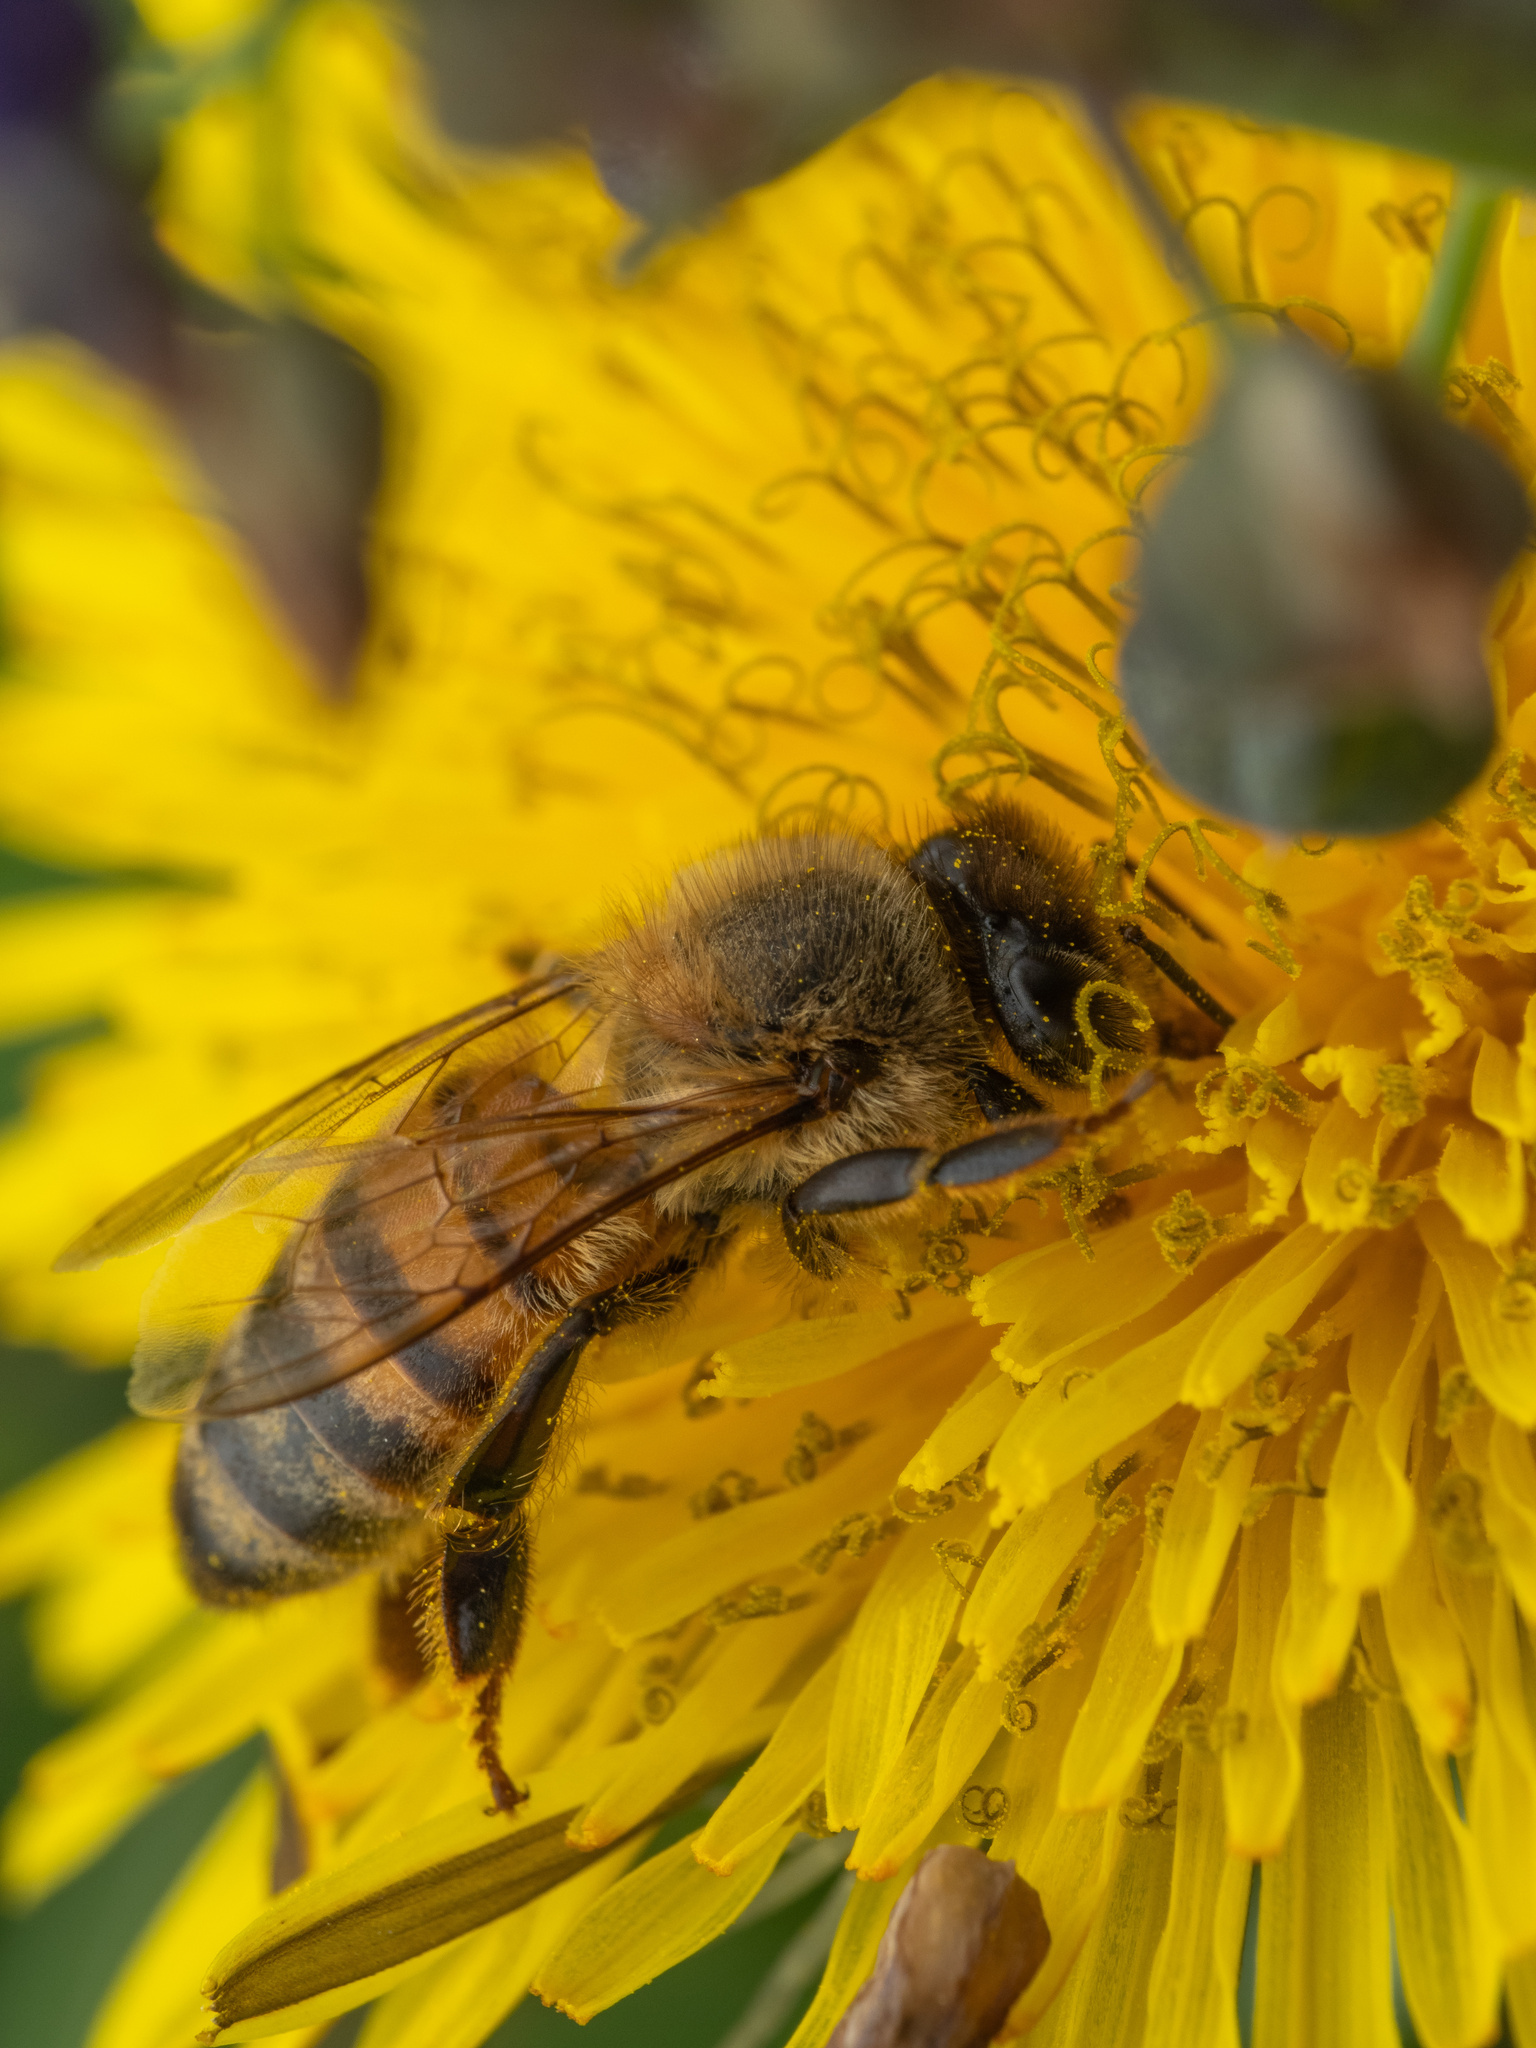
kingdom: Animalia
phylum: Arthropoda
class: Insecta
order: Hymenoptera
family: Apidae
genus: Apis
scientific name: Apis mellifera
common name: Honey bee
